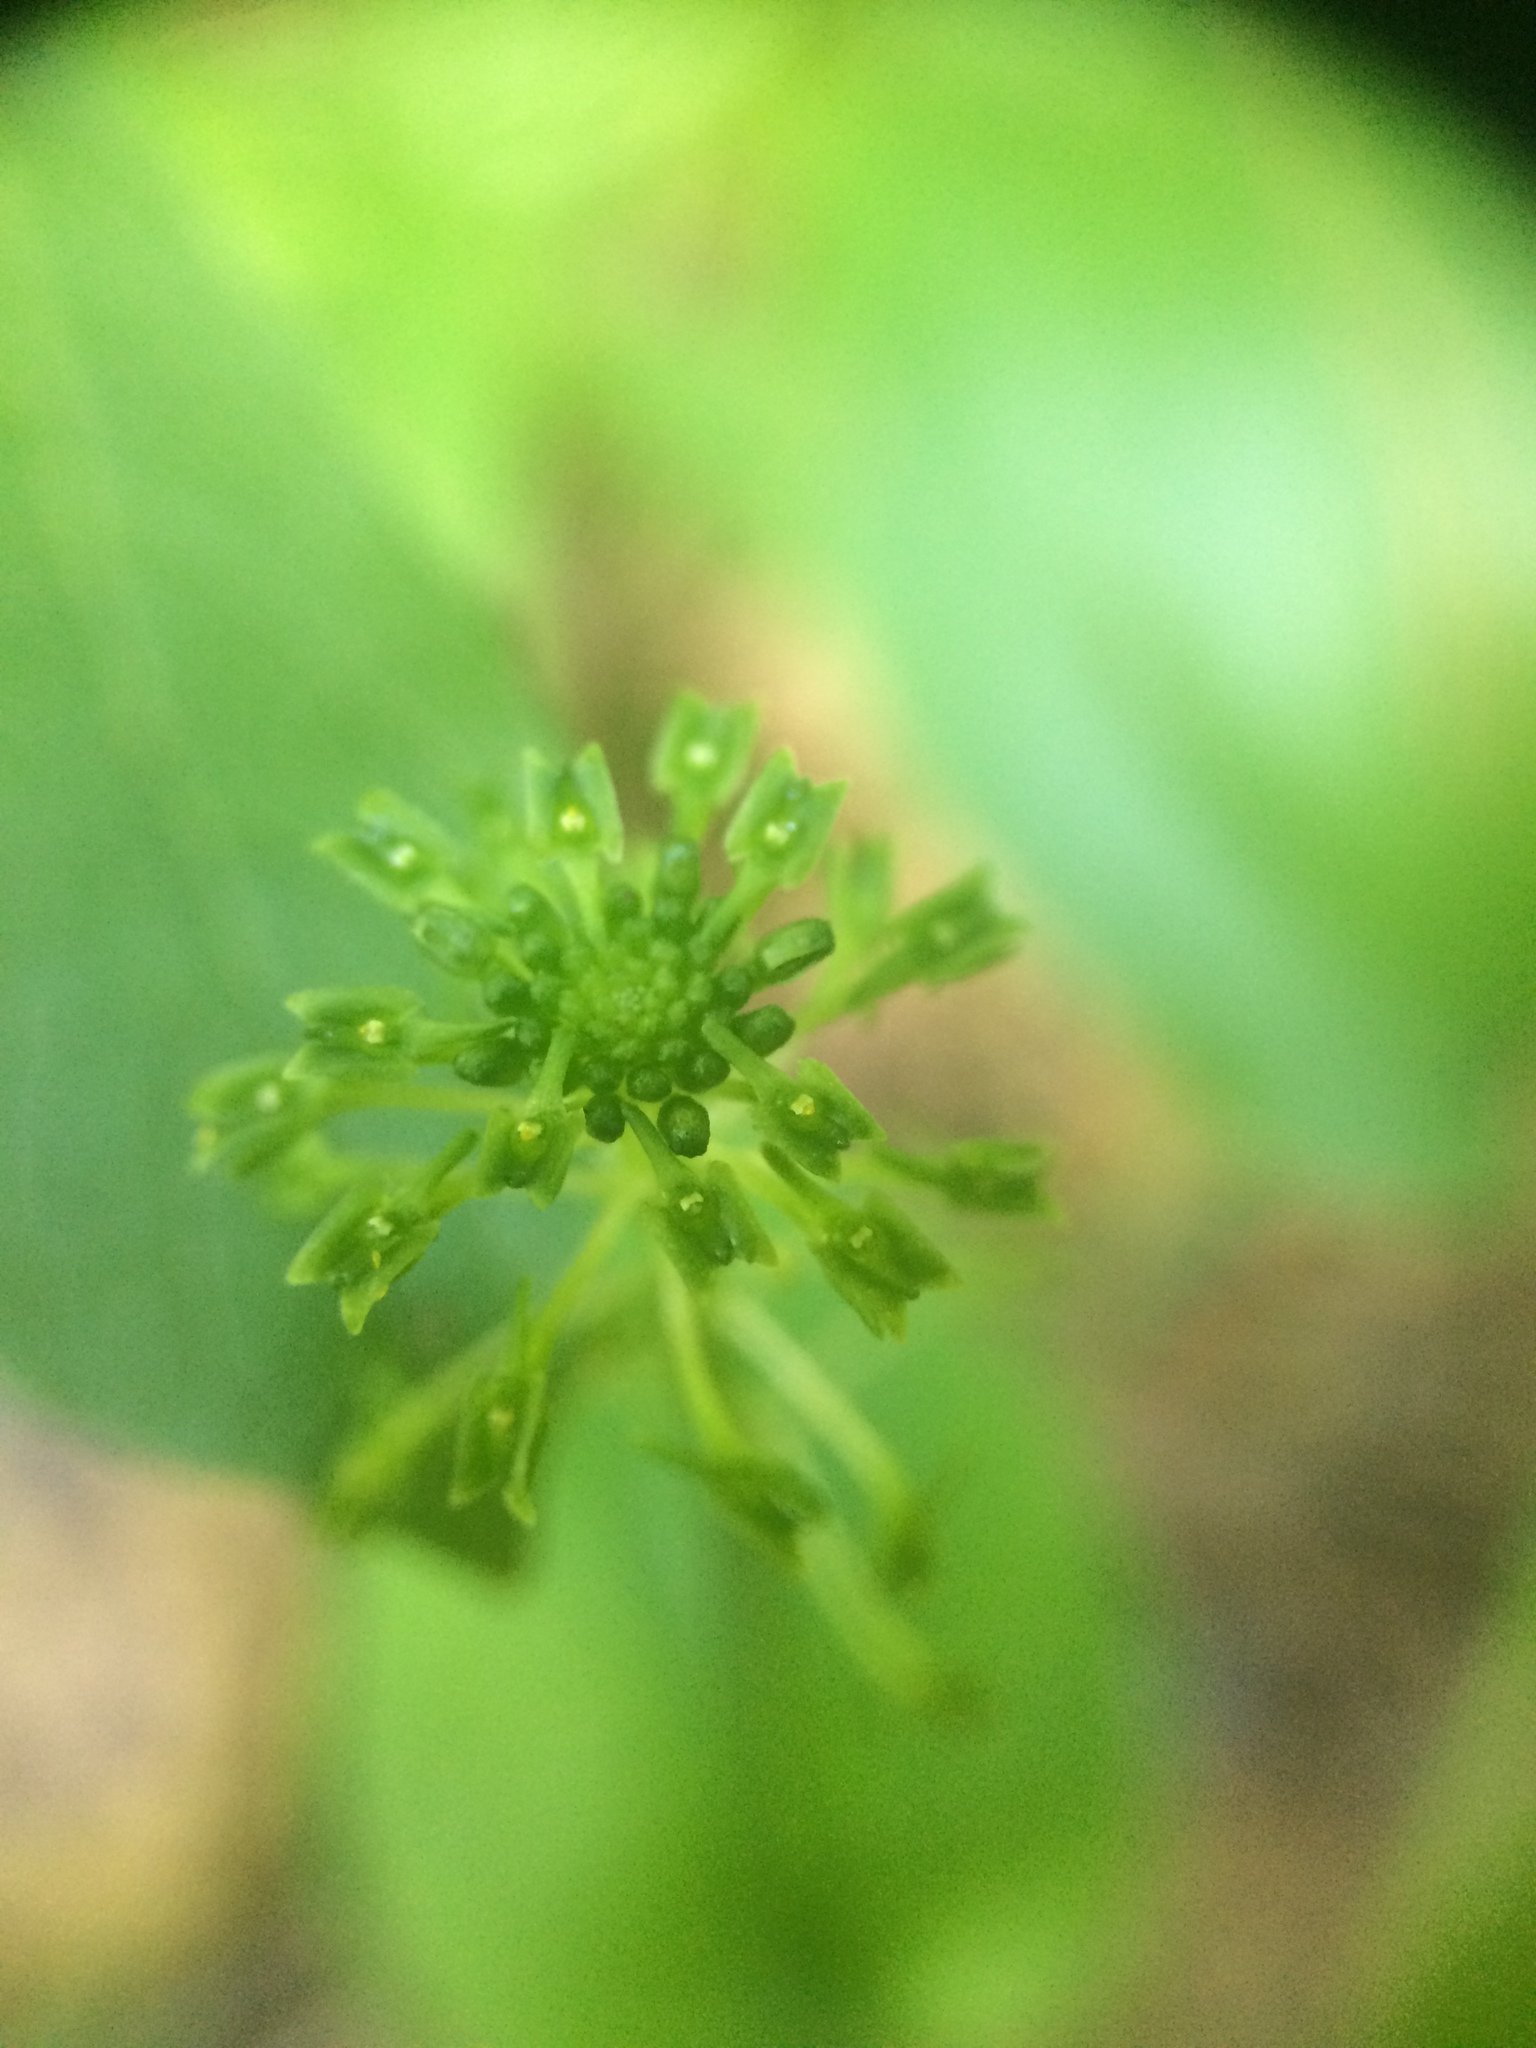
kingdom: Plantae
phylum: Tracheophyta
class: Liliopsida
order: Asparagales
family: Orchidaceae
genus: Malaxis
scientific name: Malaxis unifolia
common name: Green adder's-mouth
